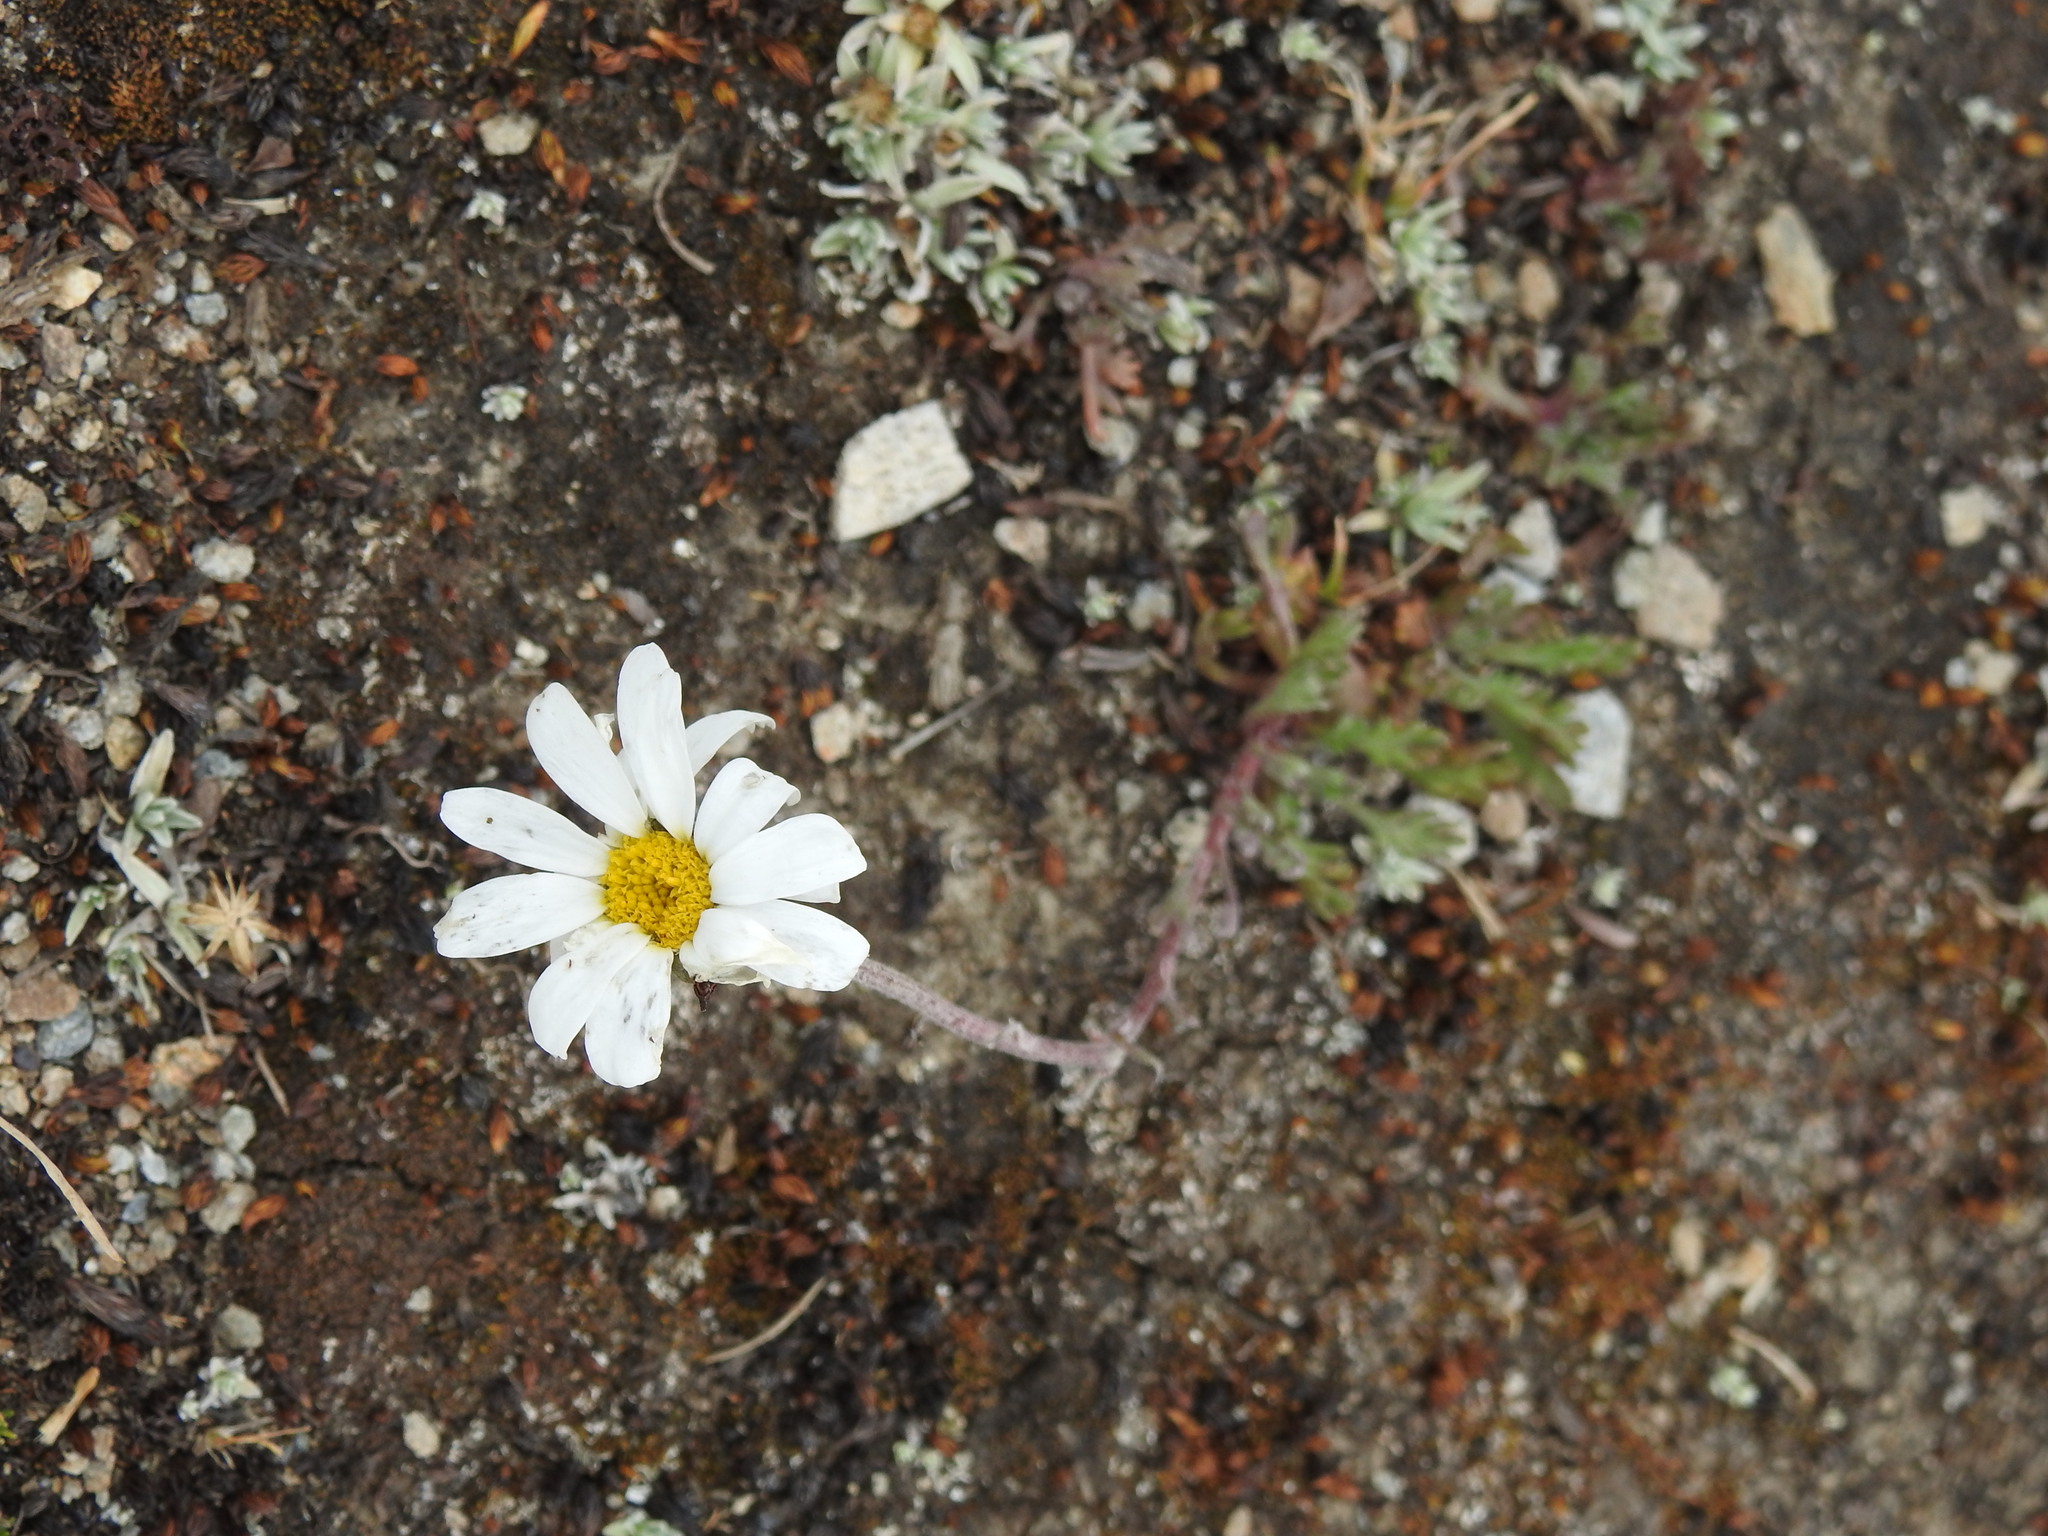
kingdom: Plantae
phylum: Tracheophyta
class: Magnoliopsida
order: Asterales
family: Asteraceae
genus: Leucanthemopsis
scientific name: Leucanthemopsis alpina
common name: Alpine moon daisy
